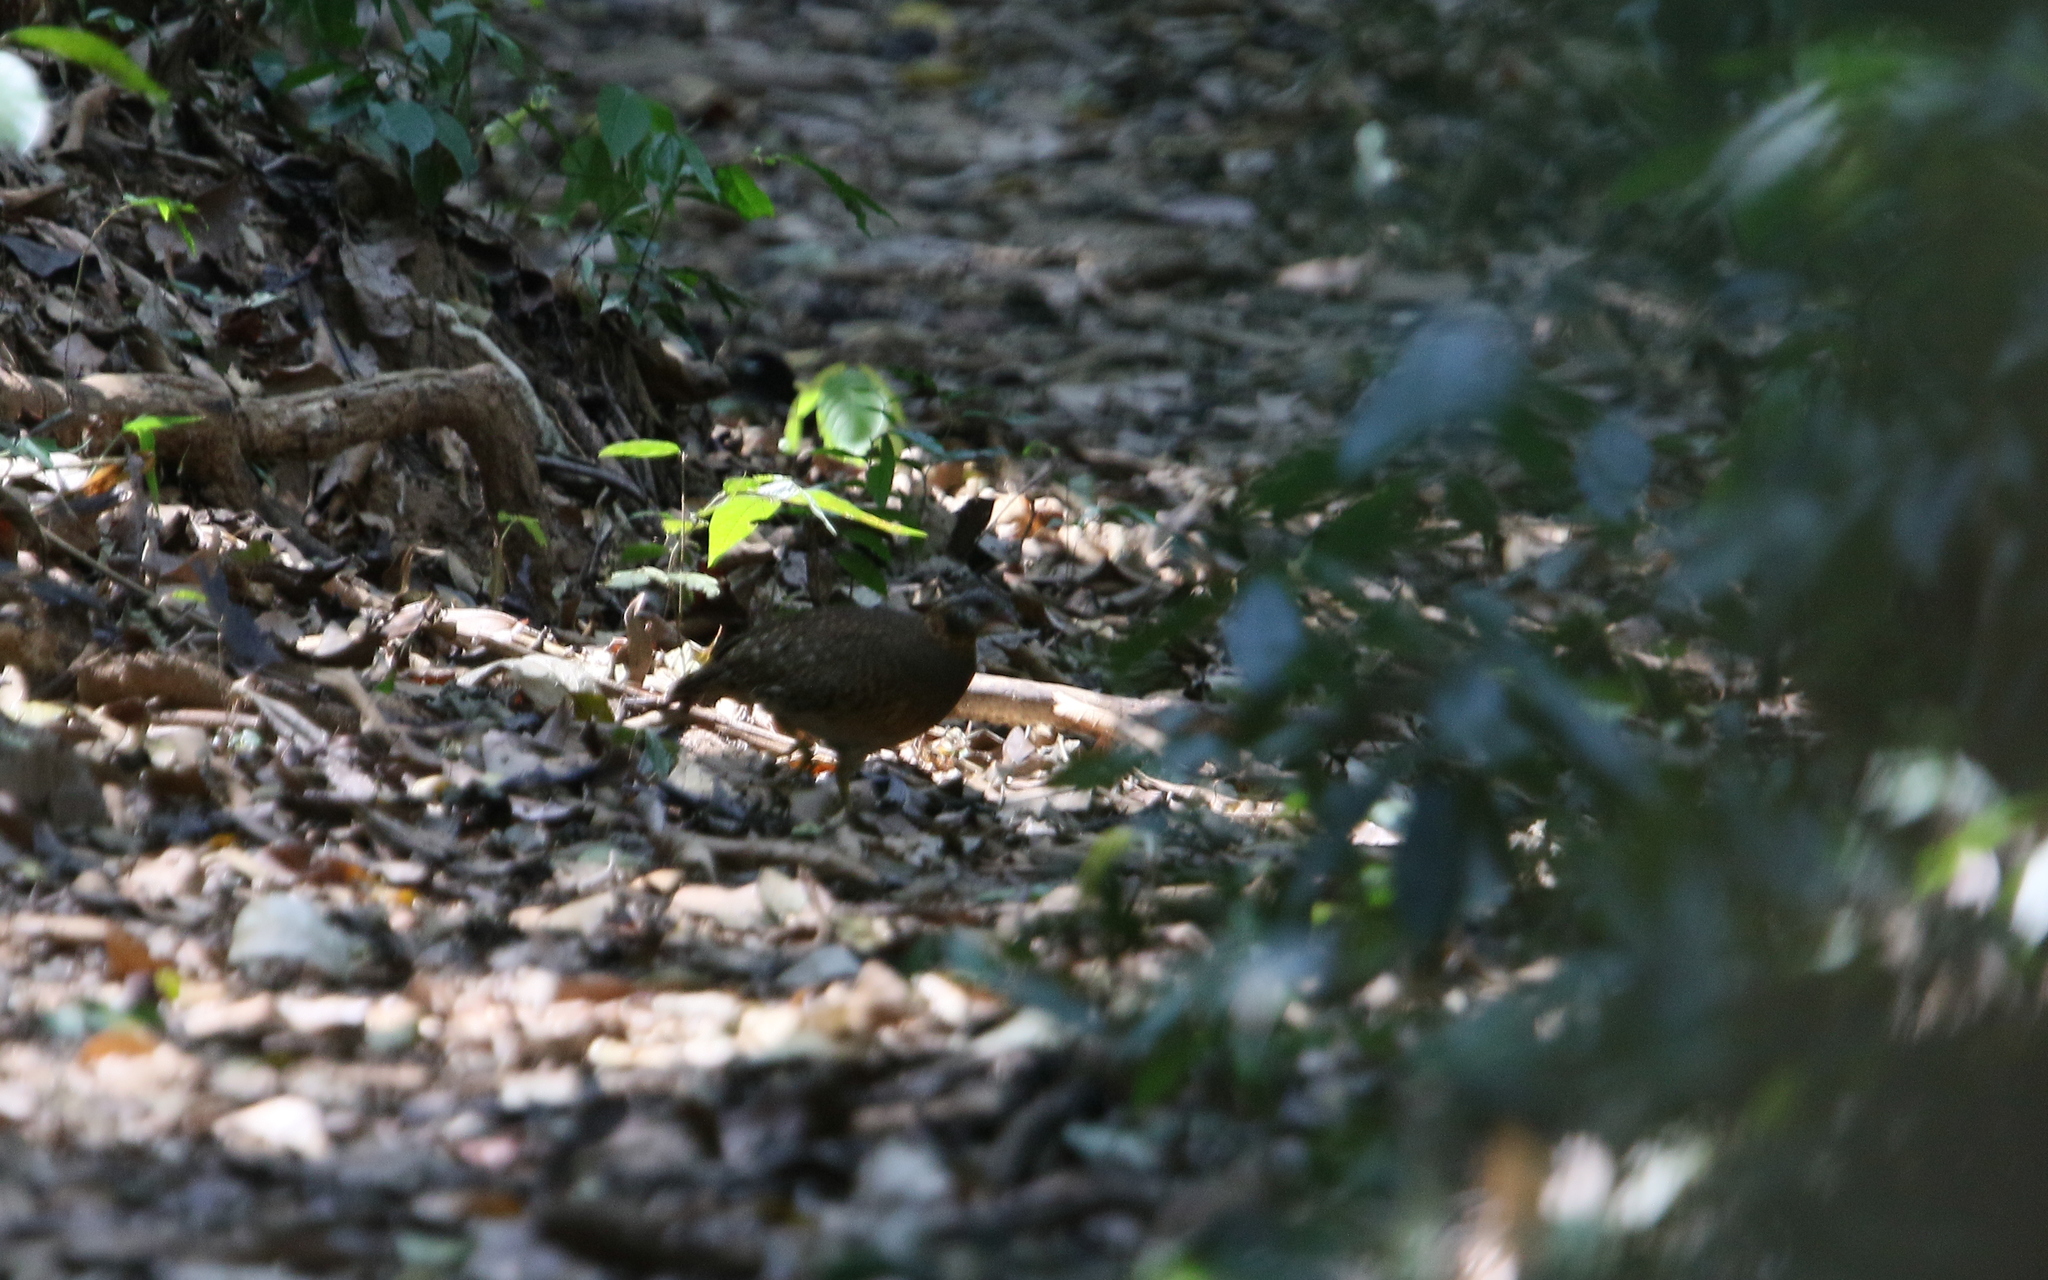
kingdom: Animalia
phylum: Chordata
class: Aves
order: Galliformes
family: Phasianidae
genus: Tropicoperdix
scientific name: Tropicoperdix chloropus
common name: Green-legged partridge
